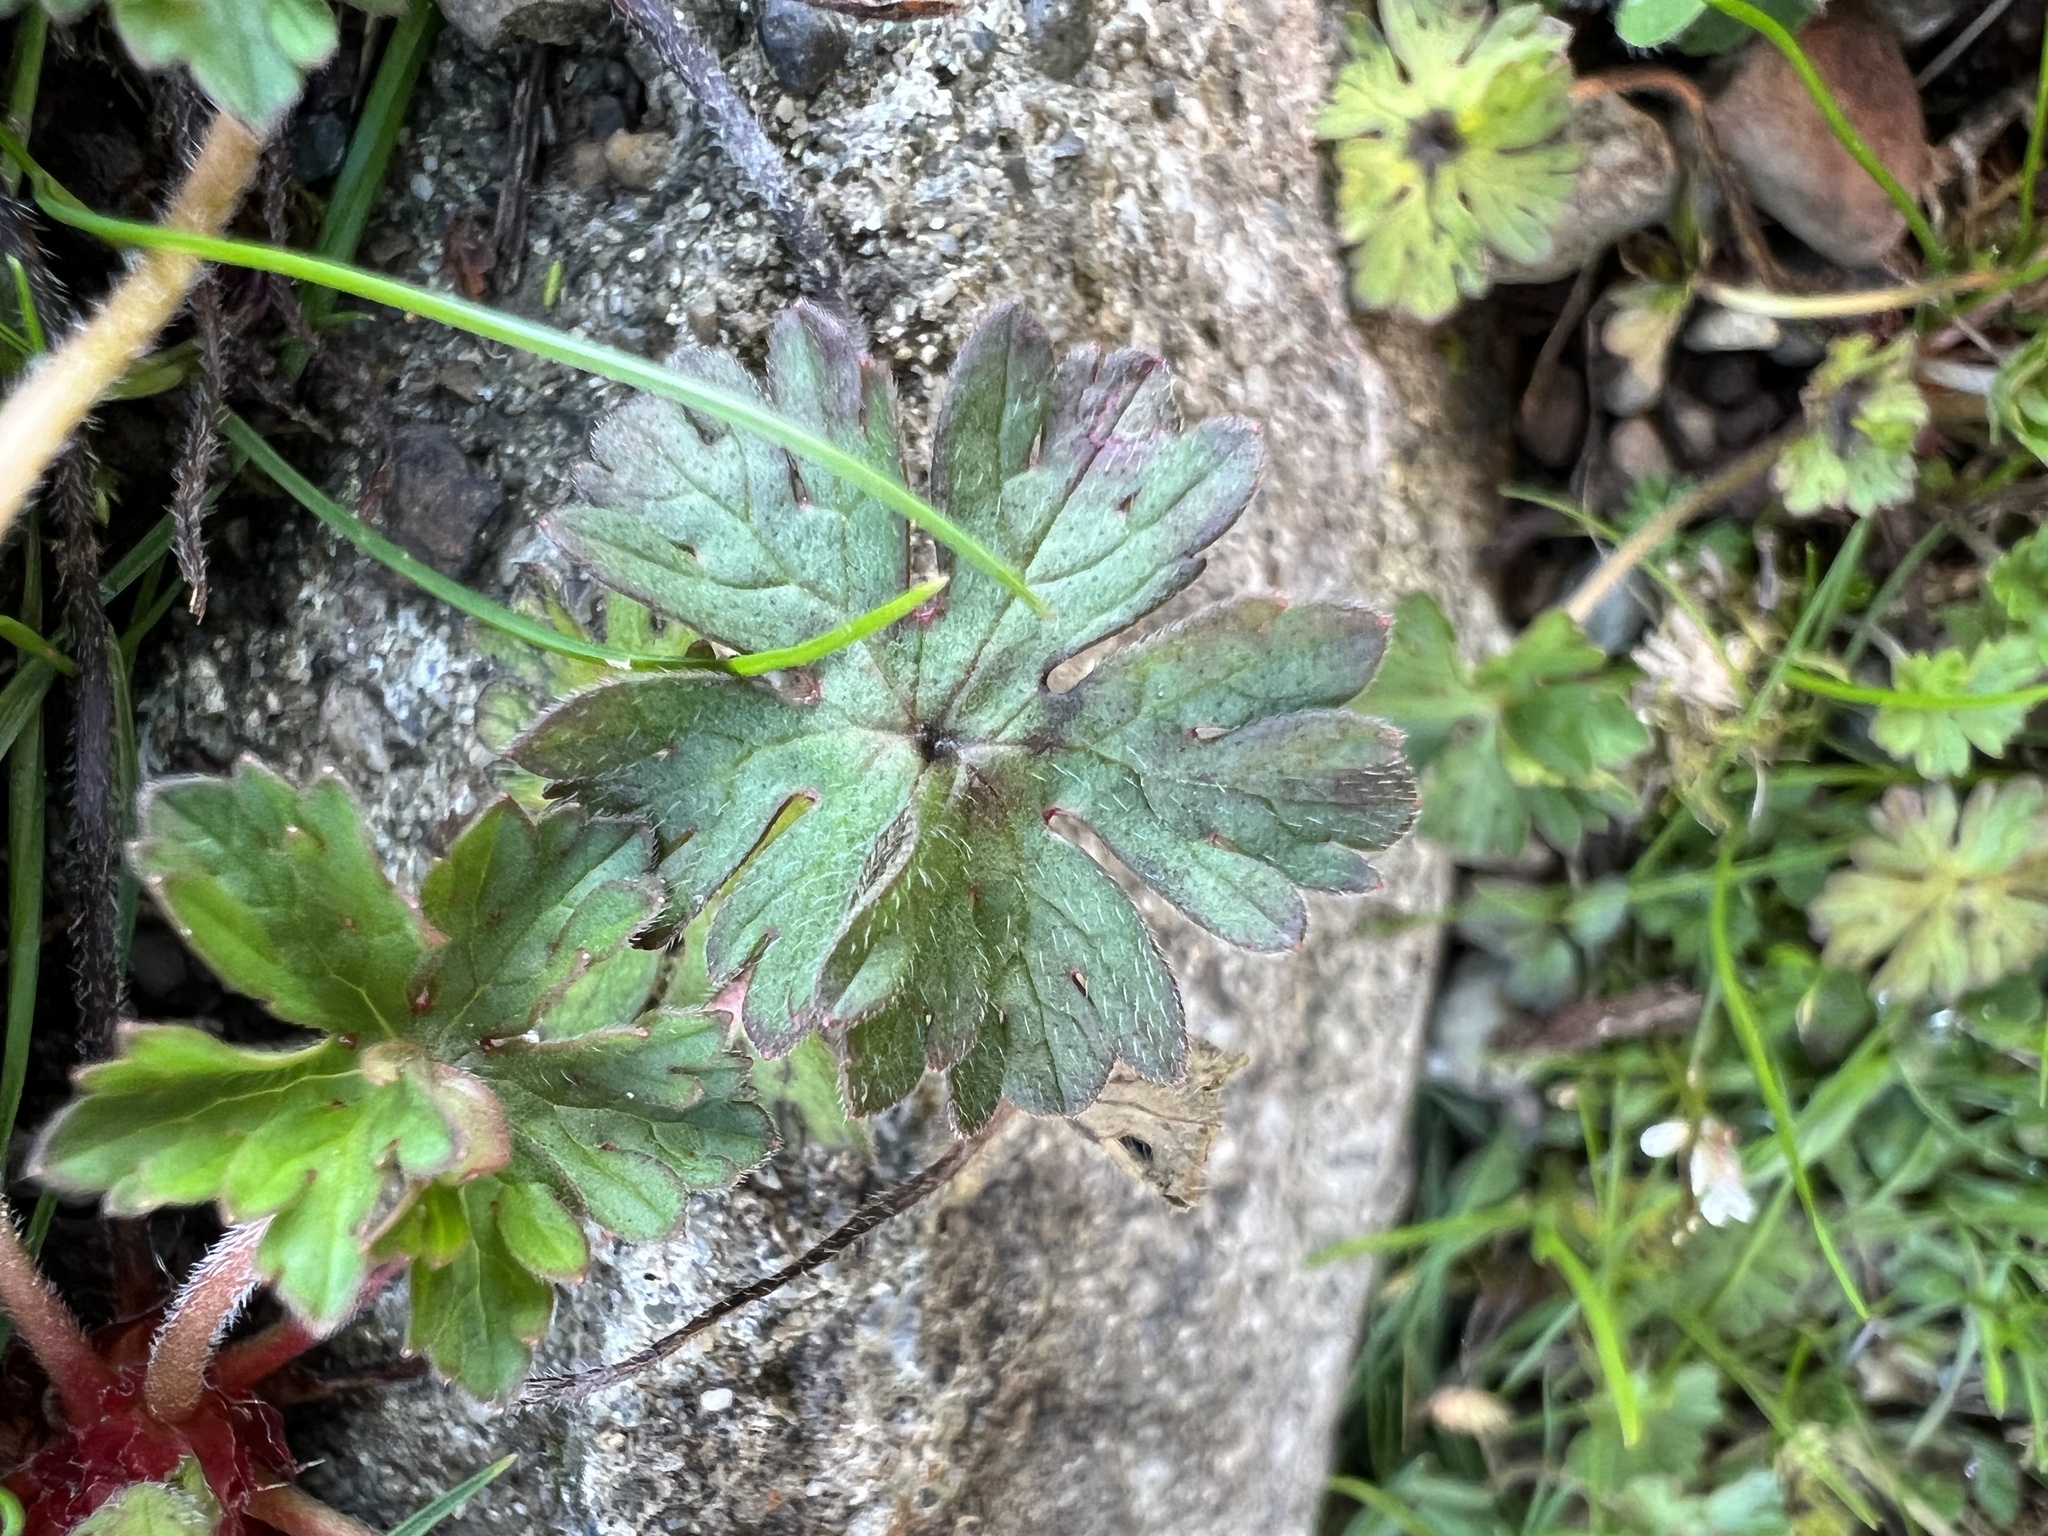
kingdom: Plantae
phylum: Tracheophyta
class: Magnoliopsida
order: Geraniales
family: Geraniaceae
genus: Geranium
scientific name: Geranium molle
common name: Dove's-foot crane's-bill
